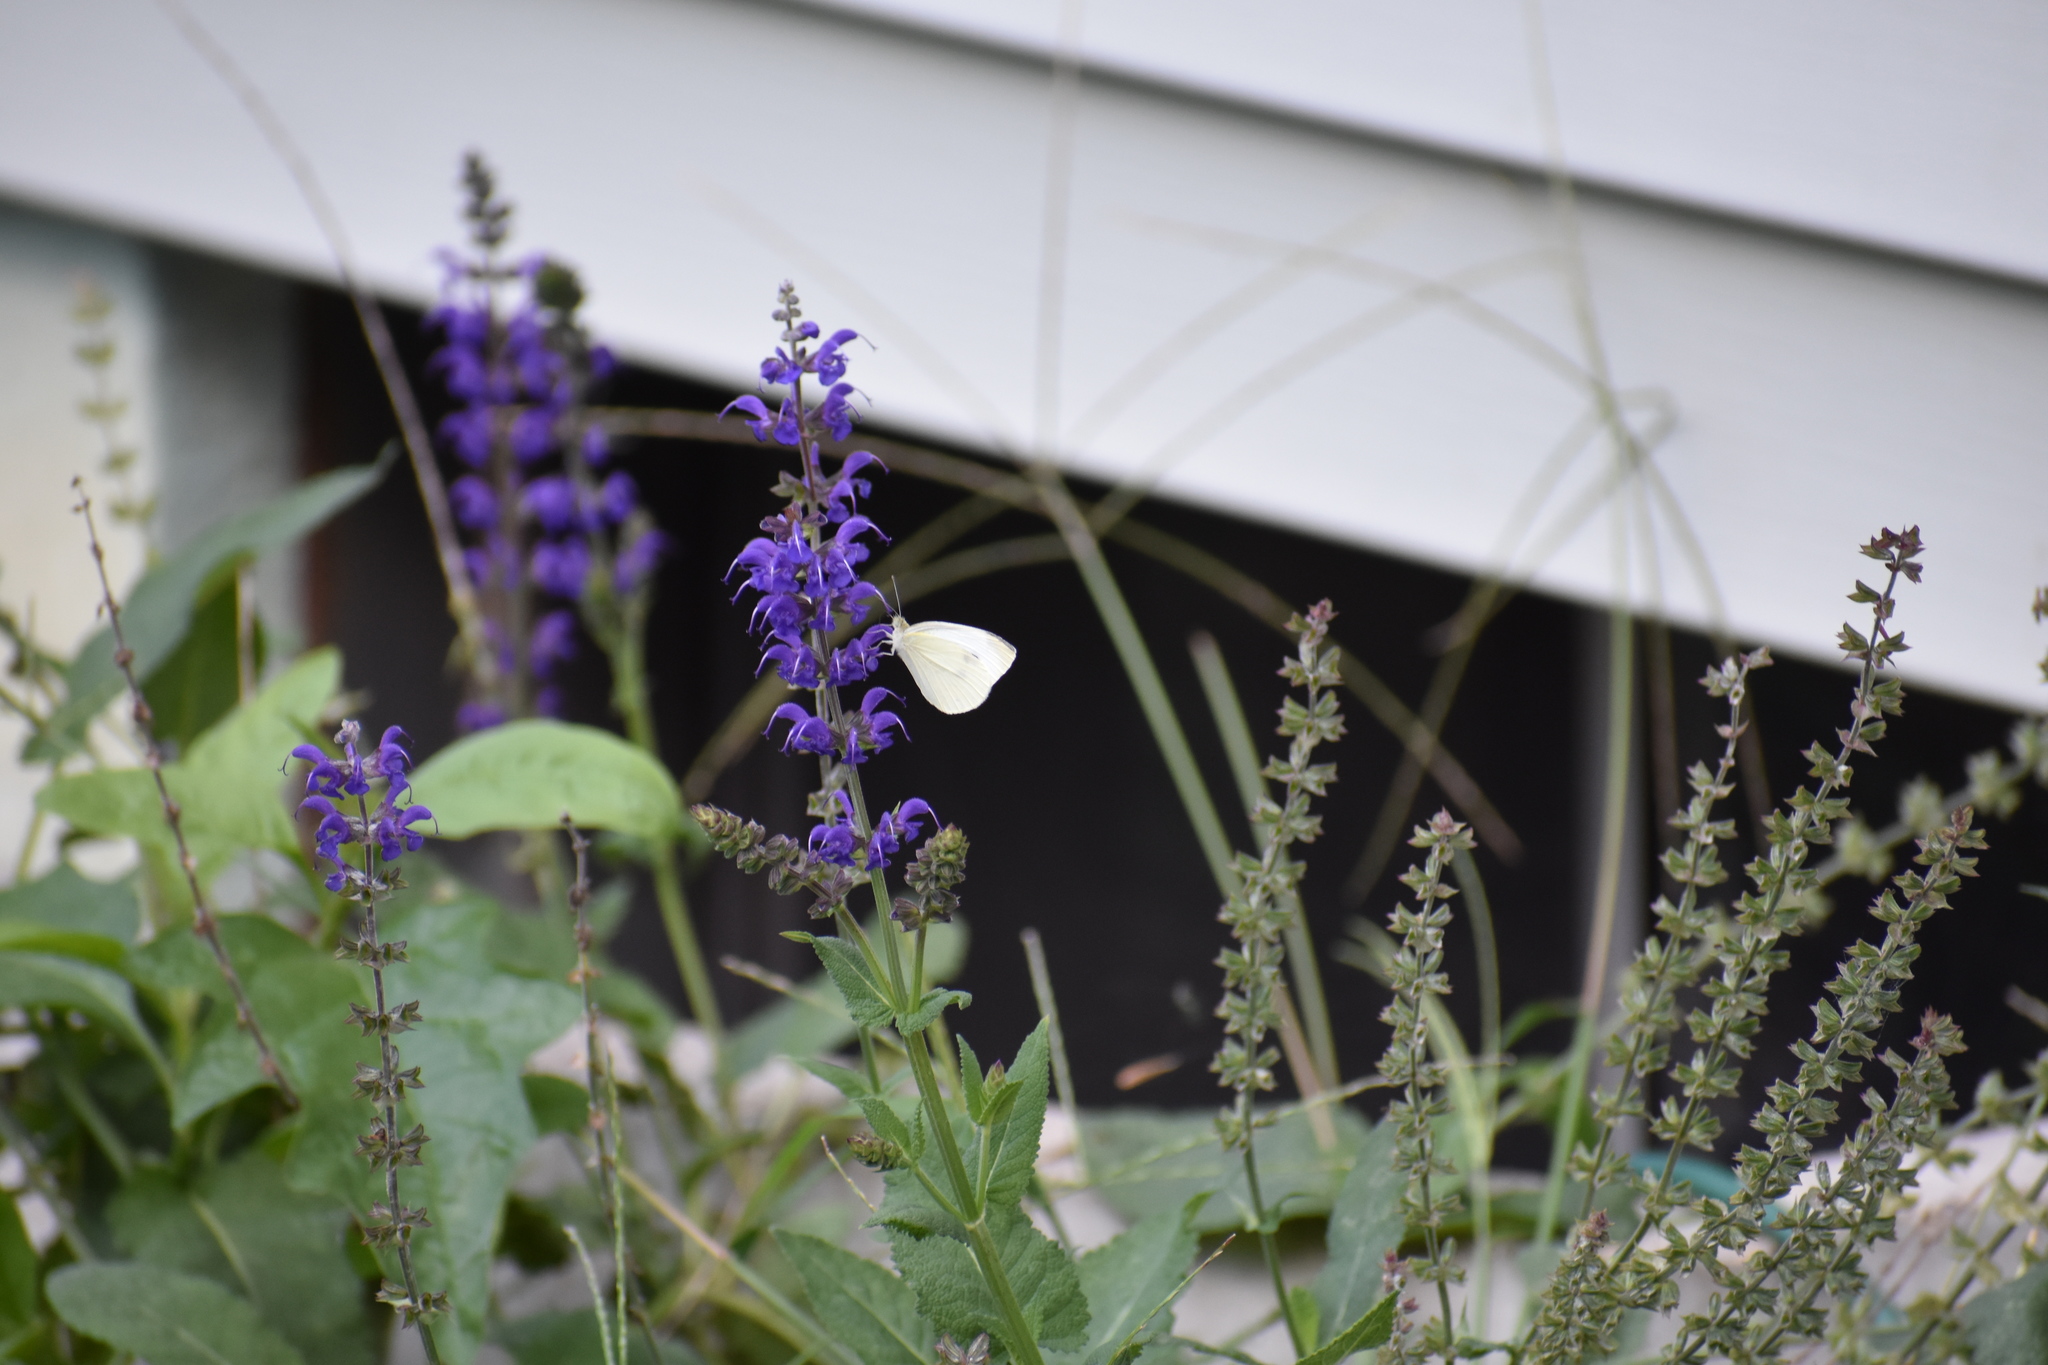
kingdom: Animalia
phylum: Arthropoda
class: Insecta
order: Lepidoptera
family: Pieridae
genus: Pieris
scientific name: Pieris rapae
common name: Small white
